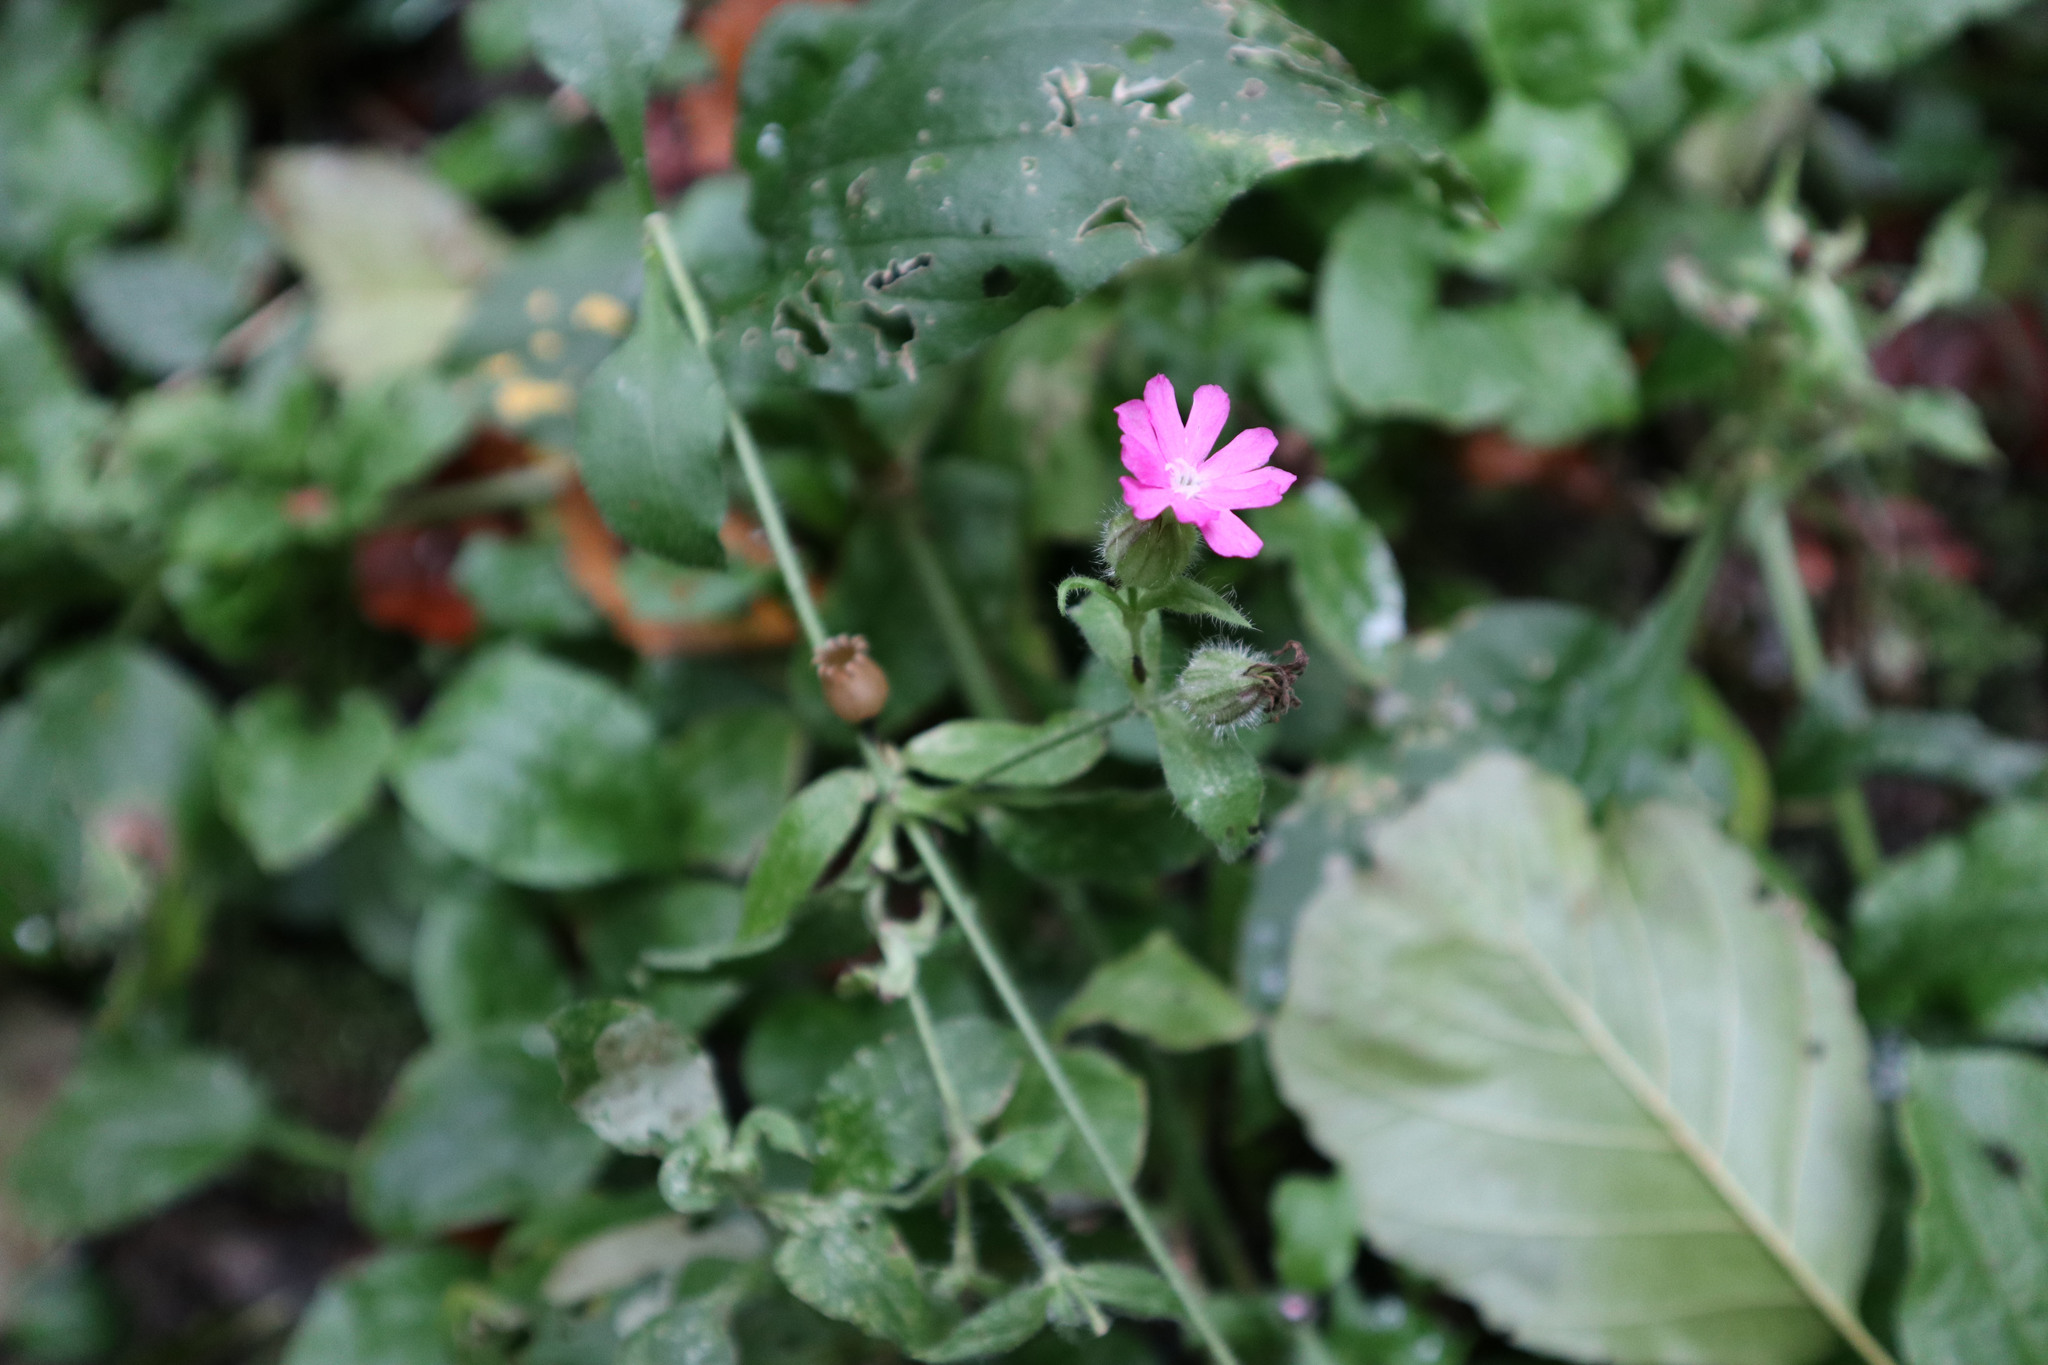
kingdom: Plantae
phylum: Tracheophyta
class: Magnoliopsida
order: Caryophyllales
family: Caryophyllaceae
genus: Silene
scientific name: Silene dioica
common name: Red campion
